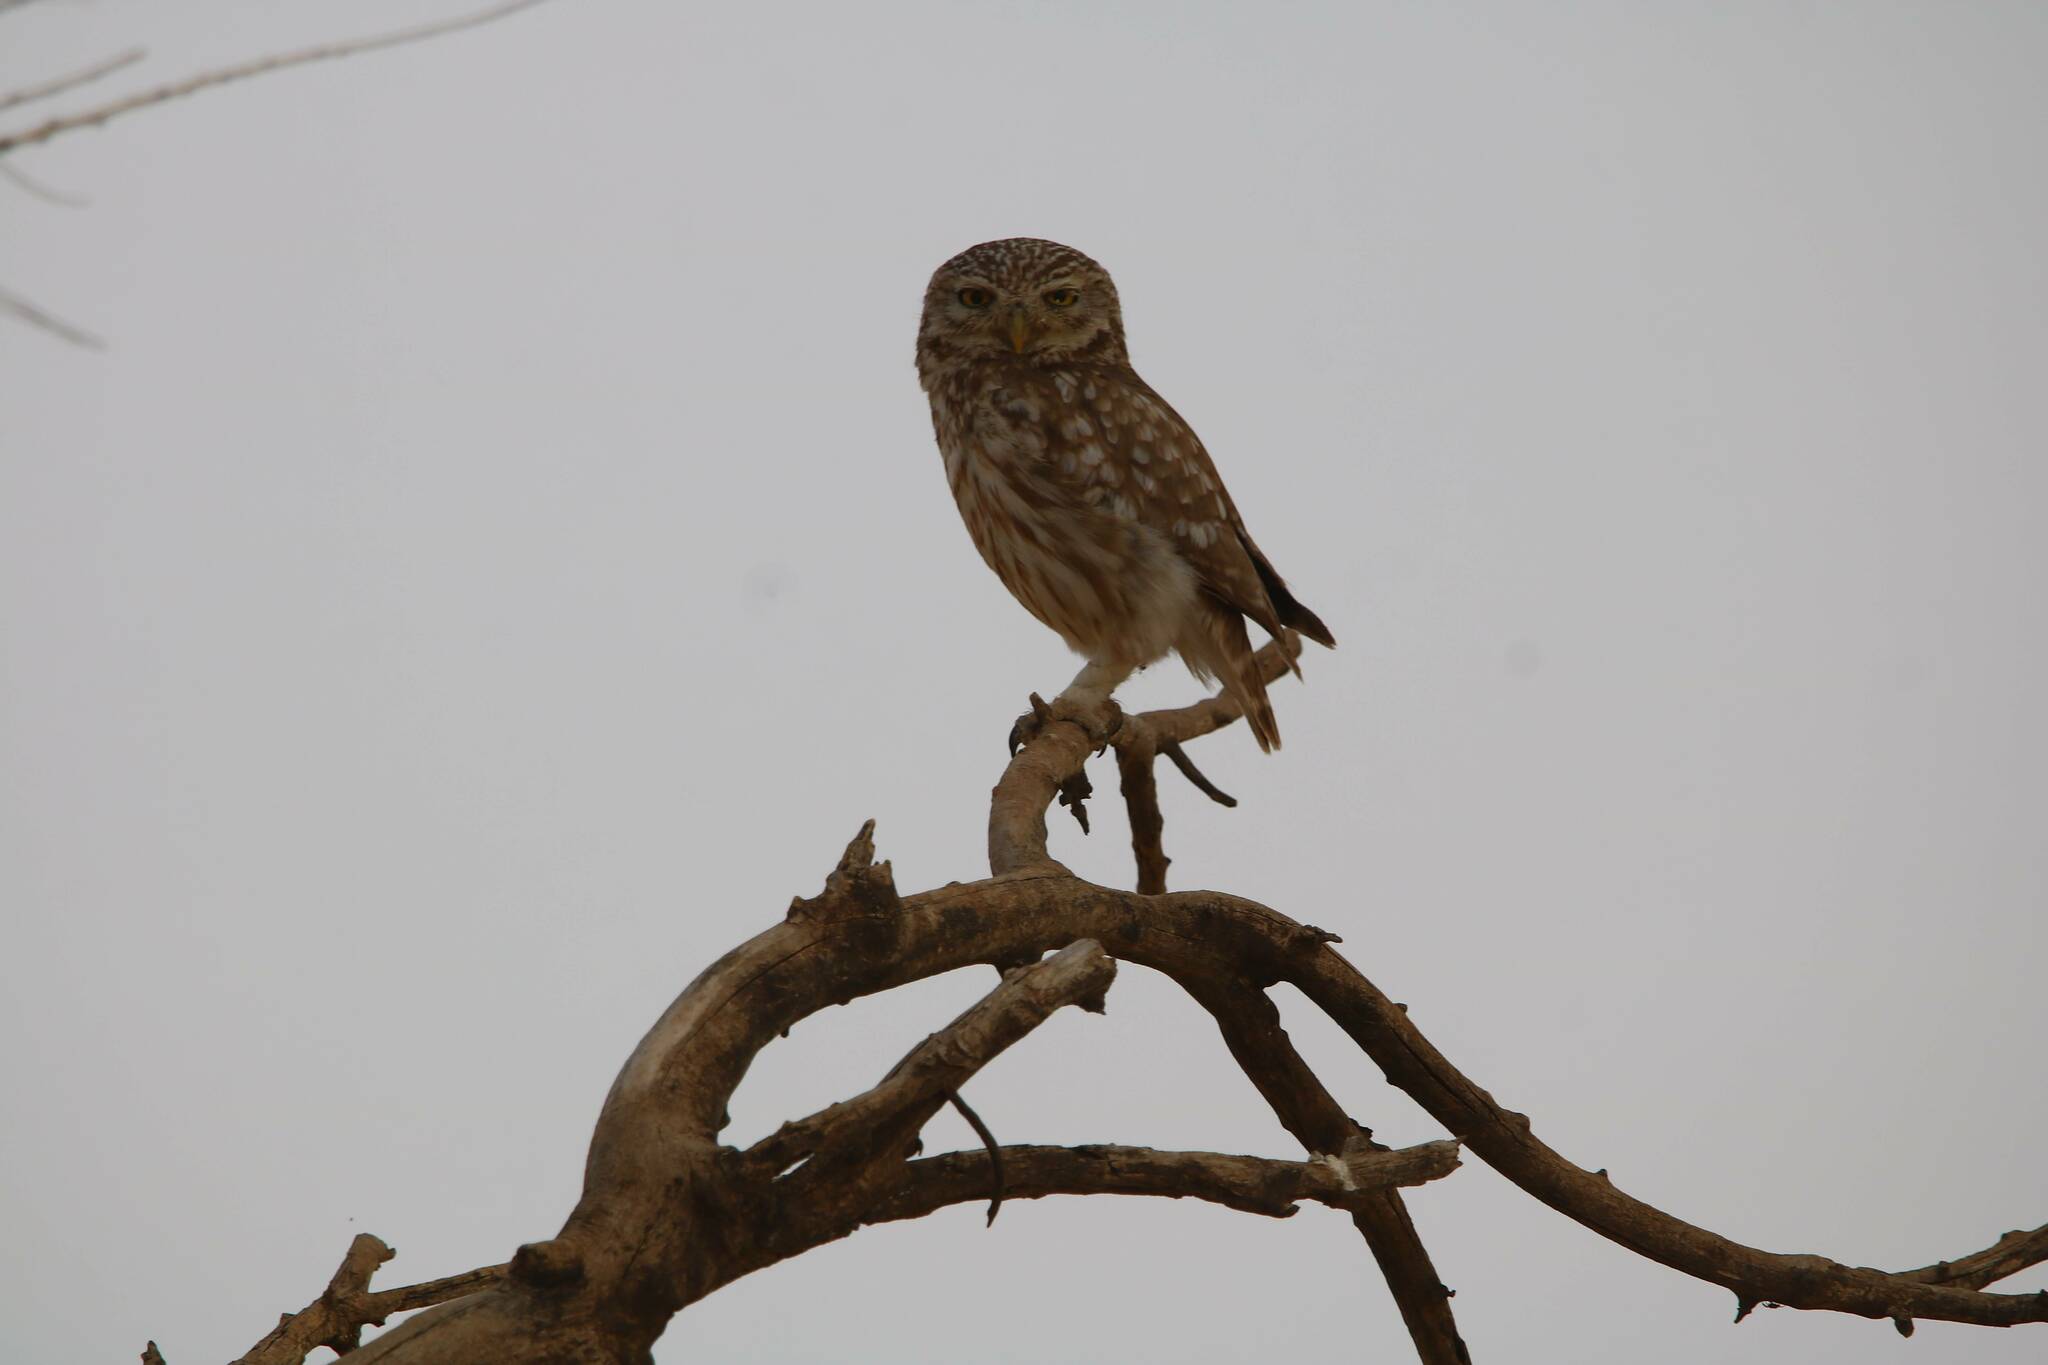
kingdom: Animalia
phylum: Chordata
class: Aves
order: Strigiformes
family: Strigidae
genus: Athene
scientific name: Athene noctua
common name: Little owl
